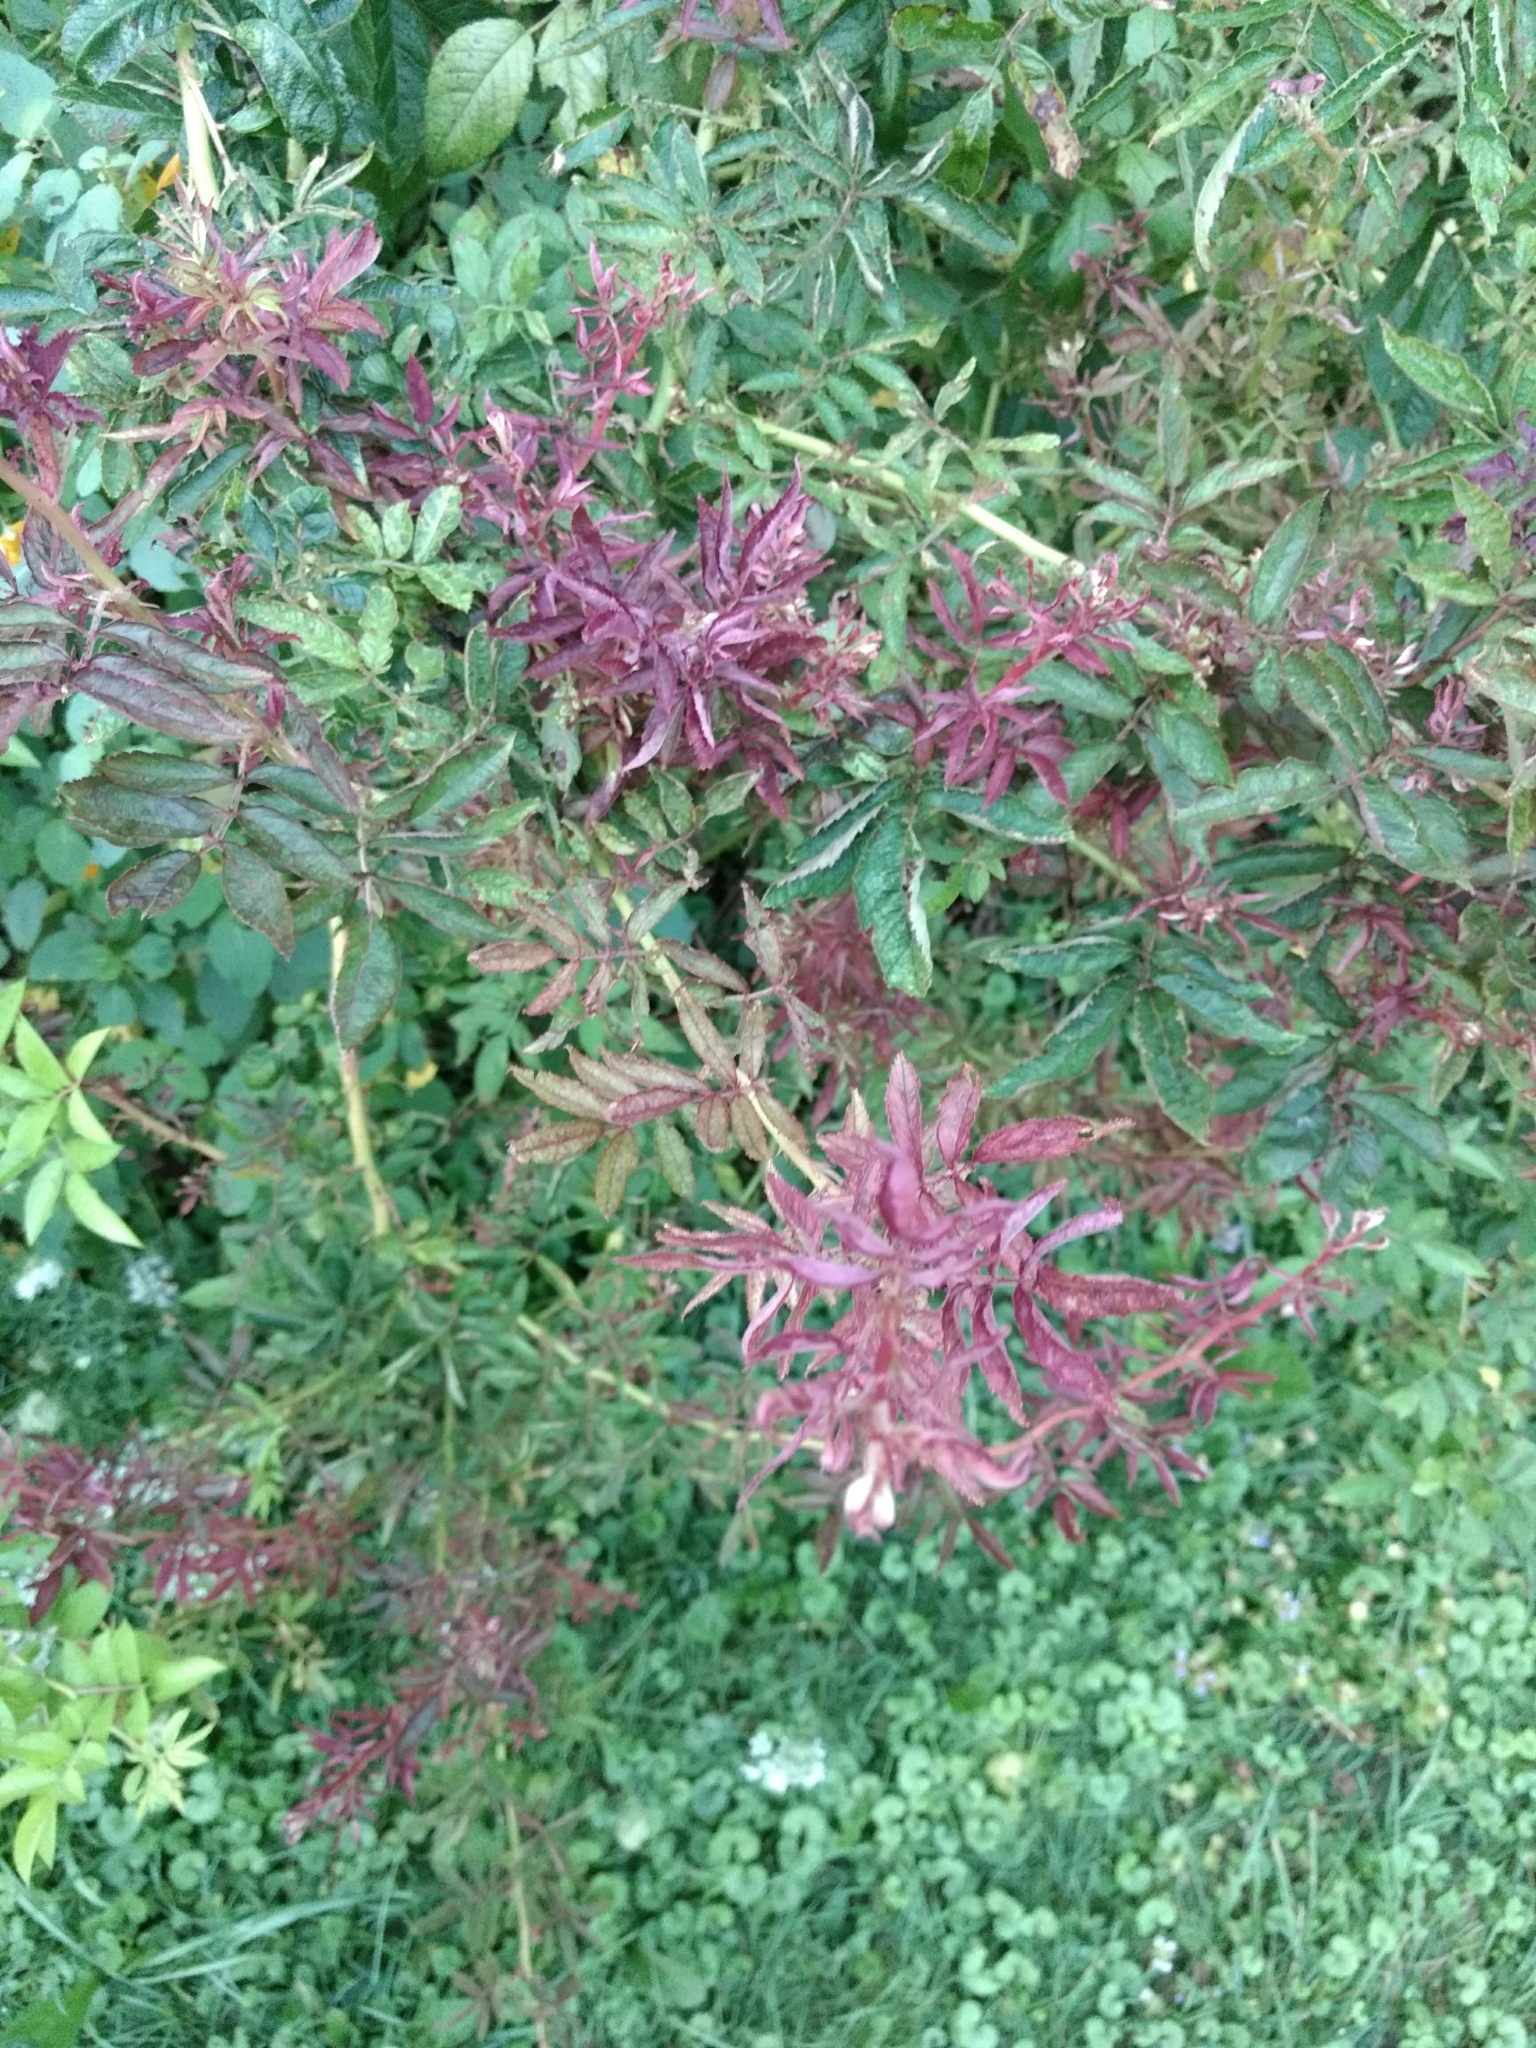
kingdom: Viruses
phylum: Negarnaviricota
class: Ellioviricetes
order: Bunyavirales
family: Fimoviridae
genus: Emaravirus
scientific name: Emaravirus rosae
